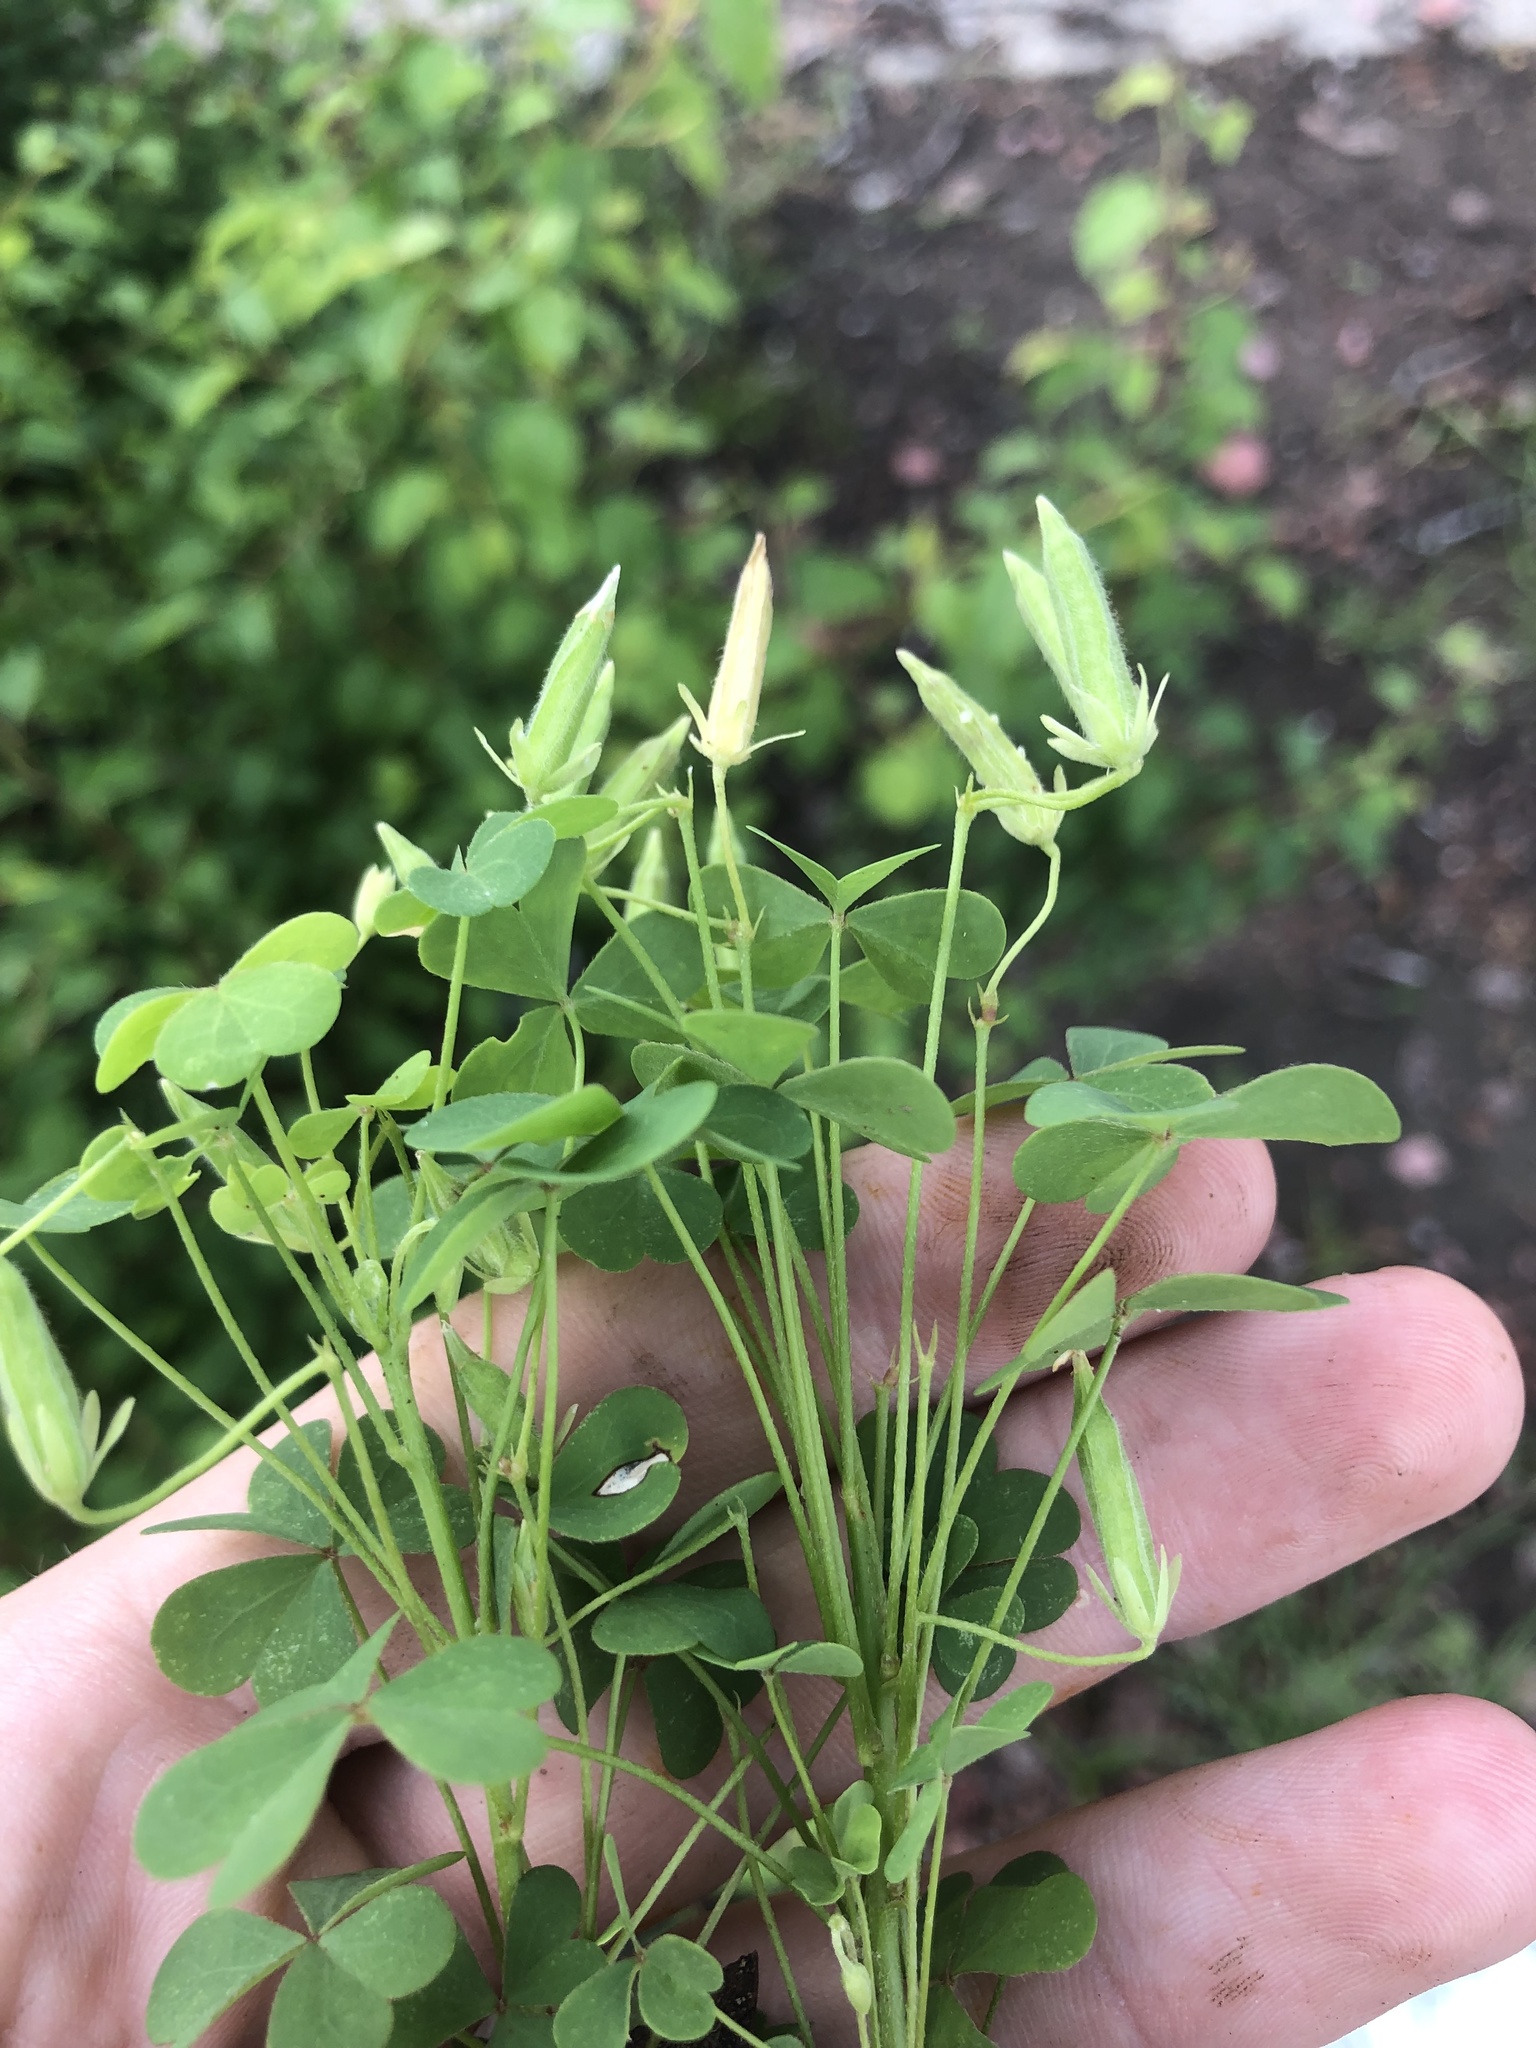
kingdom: Plantae
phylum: Tracheophyta
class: Magnoliopsida
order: Oxalidales
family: Oxalidaceae
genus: Oxalis
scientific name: Oxalis dillenii
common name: Sussex yellow-sorrel
